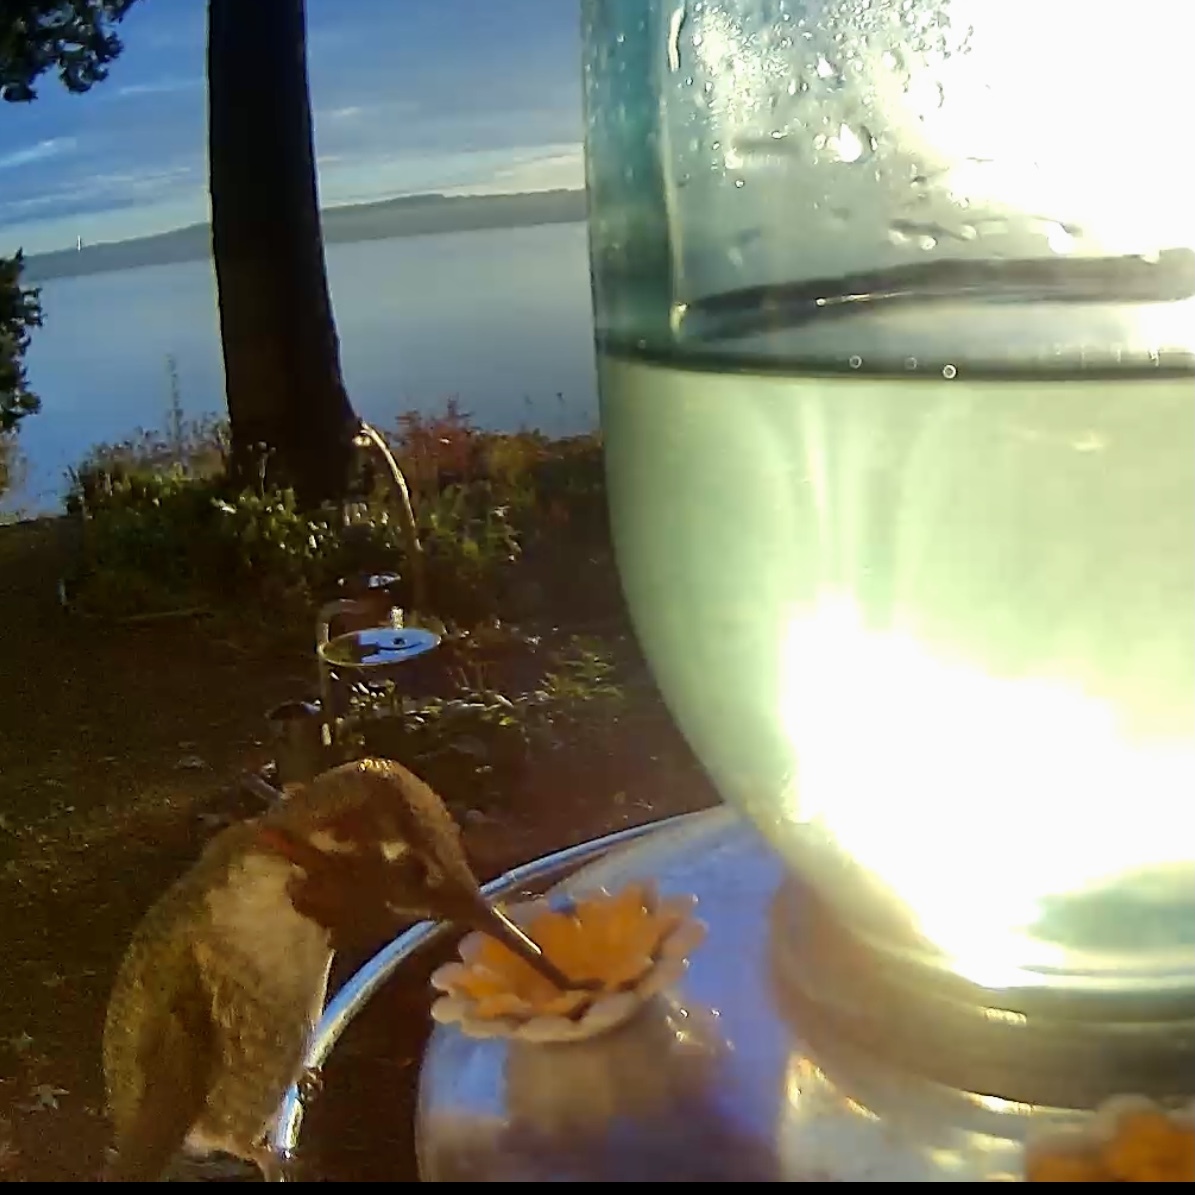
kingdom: Animalia
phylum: Chordata
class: Aves
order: Apodiformes
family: Trochilidae
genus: Calypte
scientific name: Calypte anna
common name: Anna's hummingbird
